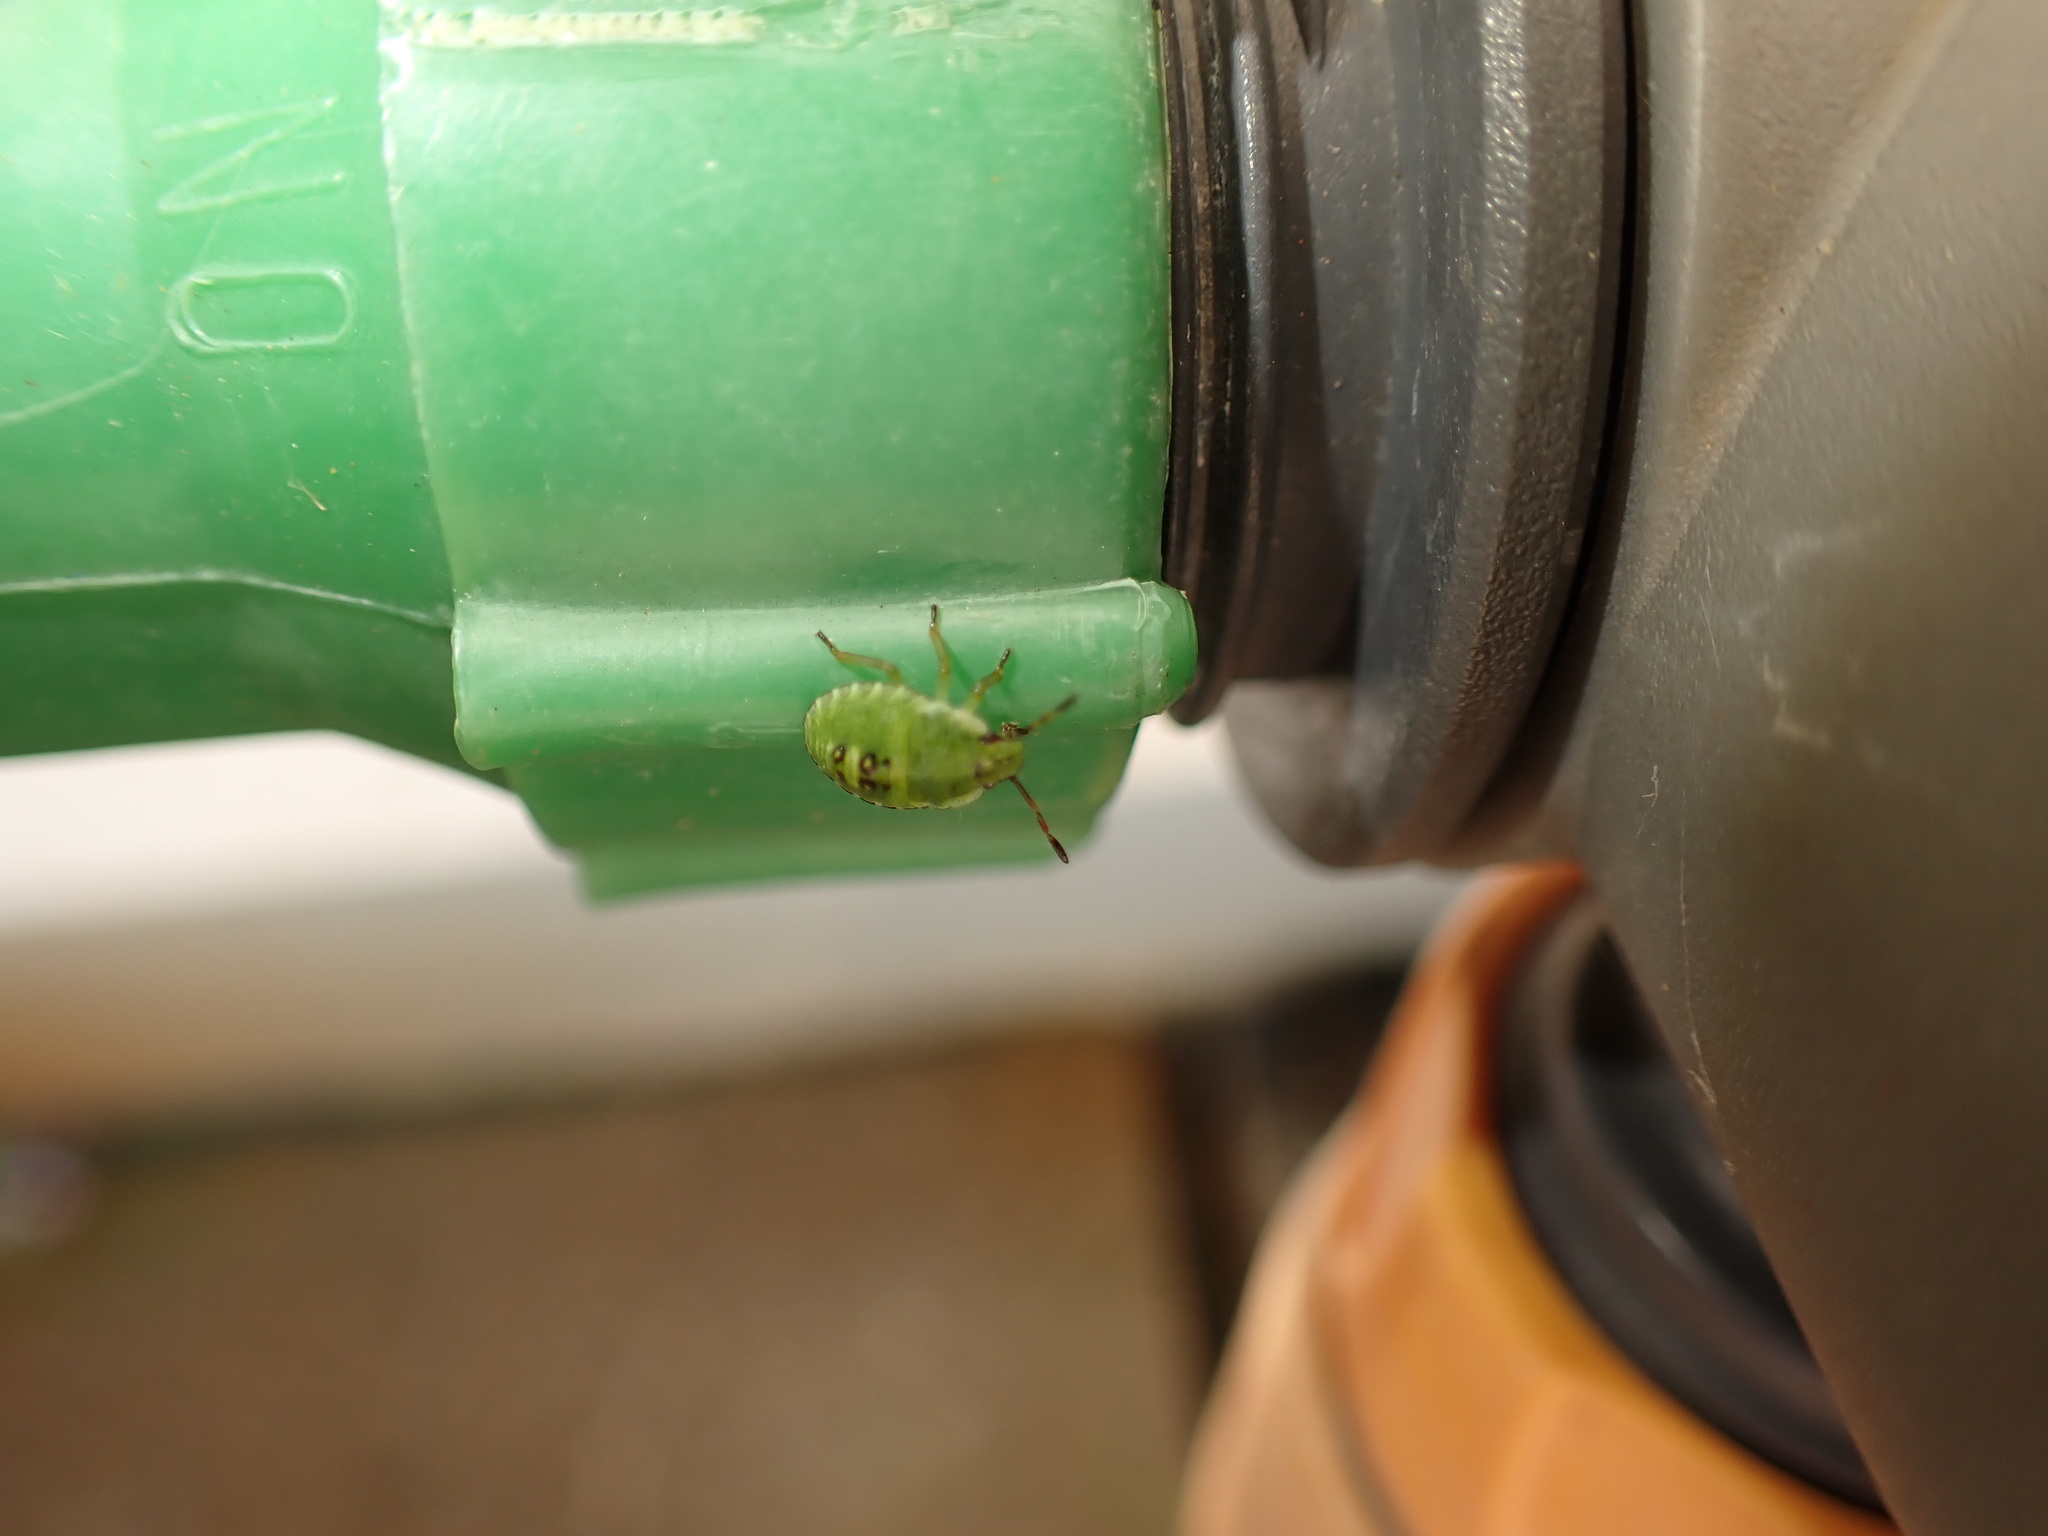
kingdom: Animalia
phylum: Arthropoda
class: Insecta
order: Hemiptera
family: Pentatomidae
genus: Palomena
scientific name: Palomena prasina
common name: Green shieldbug
